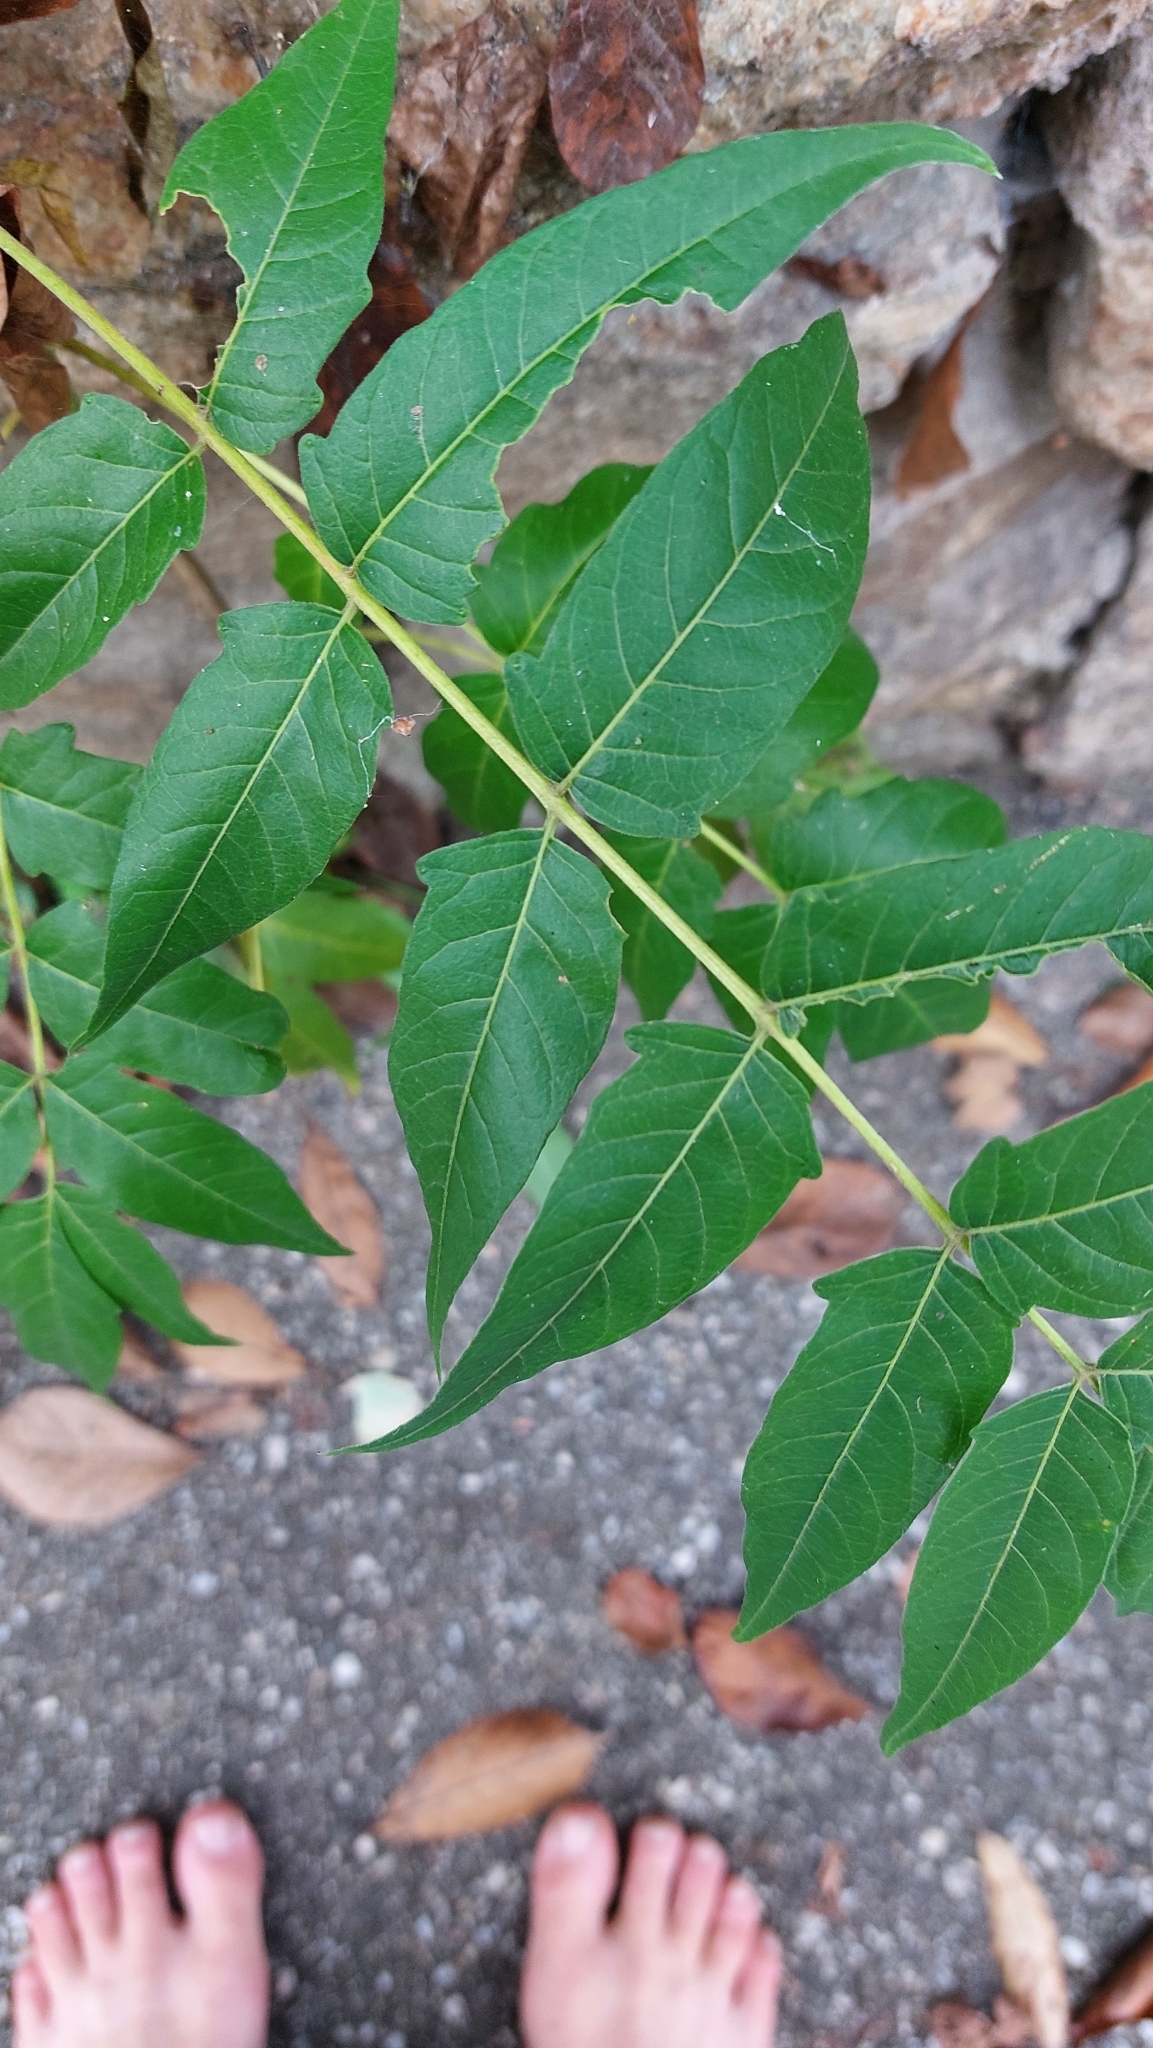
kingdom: Plantae
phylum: Tracheophyta
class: Magnoliopsida
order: Sapindales
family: Simaroubaceae
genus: Ailanthus
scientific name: Ailanthus altissima
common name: Tree-of-heaven
